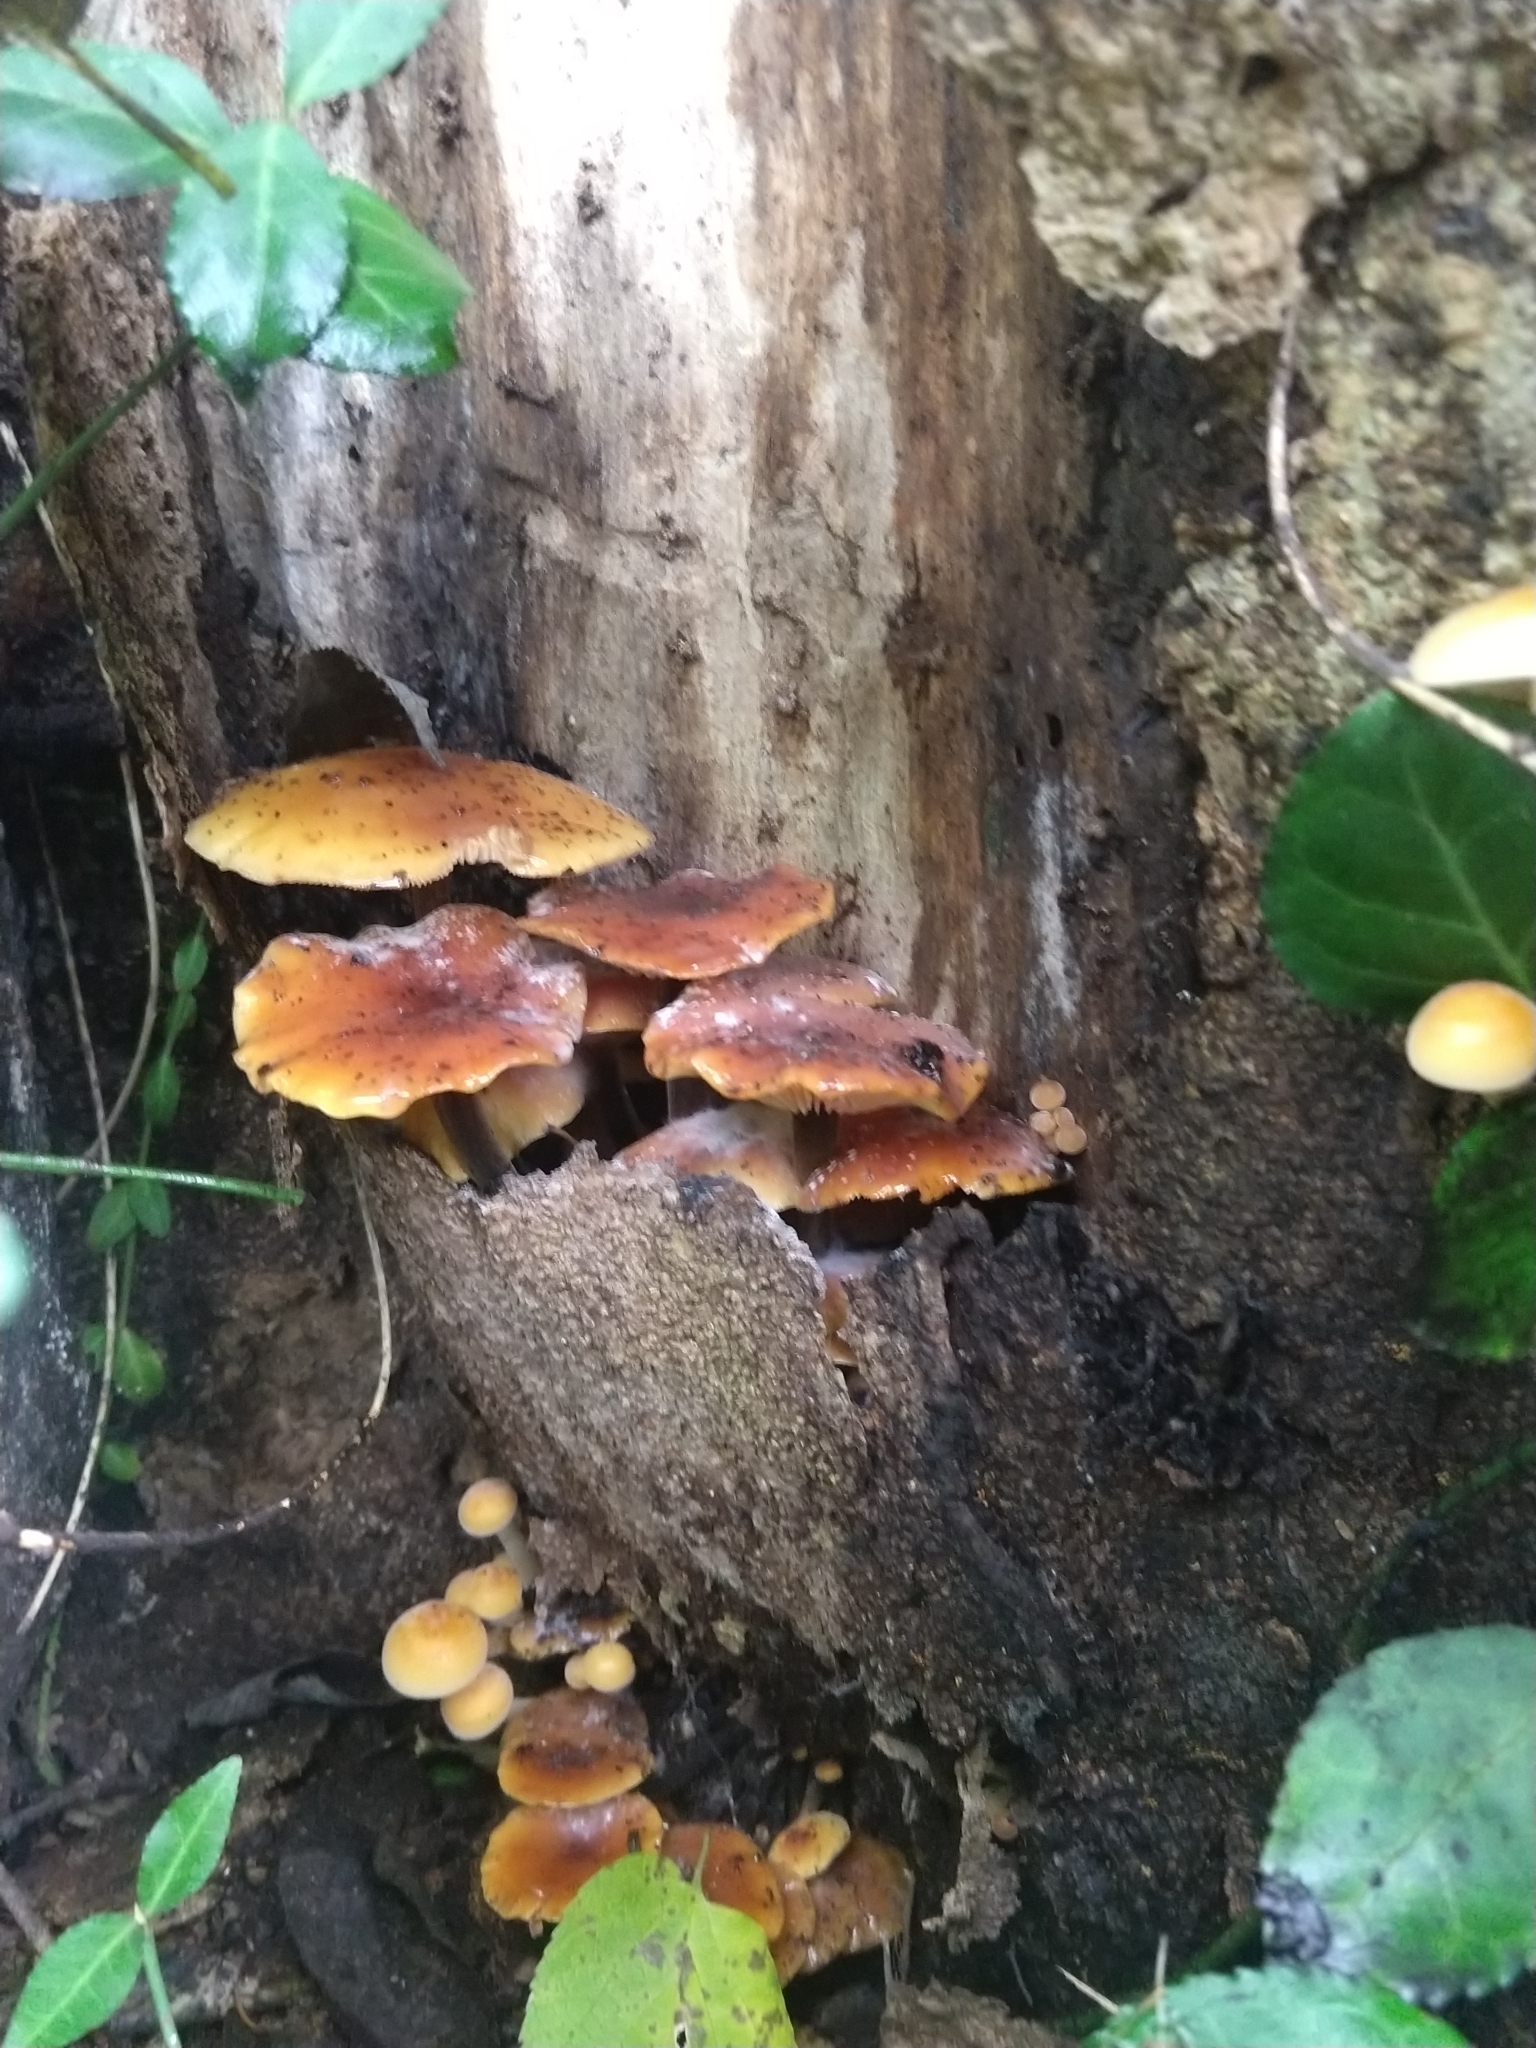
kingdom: Fungi
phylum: Basidiomycota
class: Agaricomycetes
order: Agaricales
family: Physalacriaceae
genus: Flammulina
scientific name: Flammulina velutipes
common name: Velvet shank
